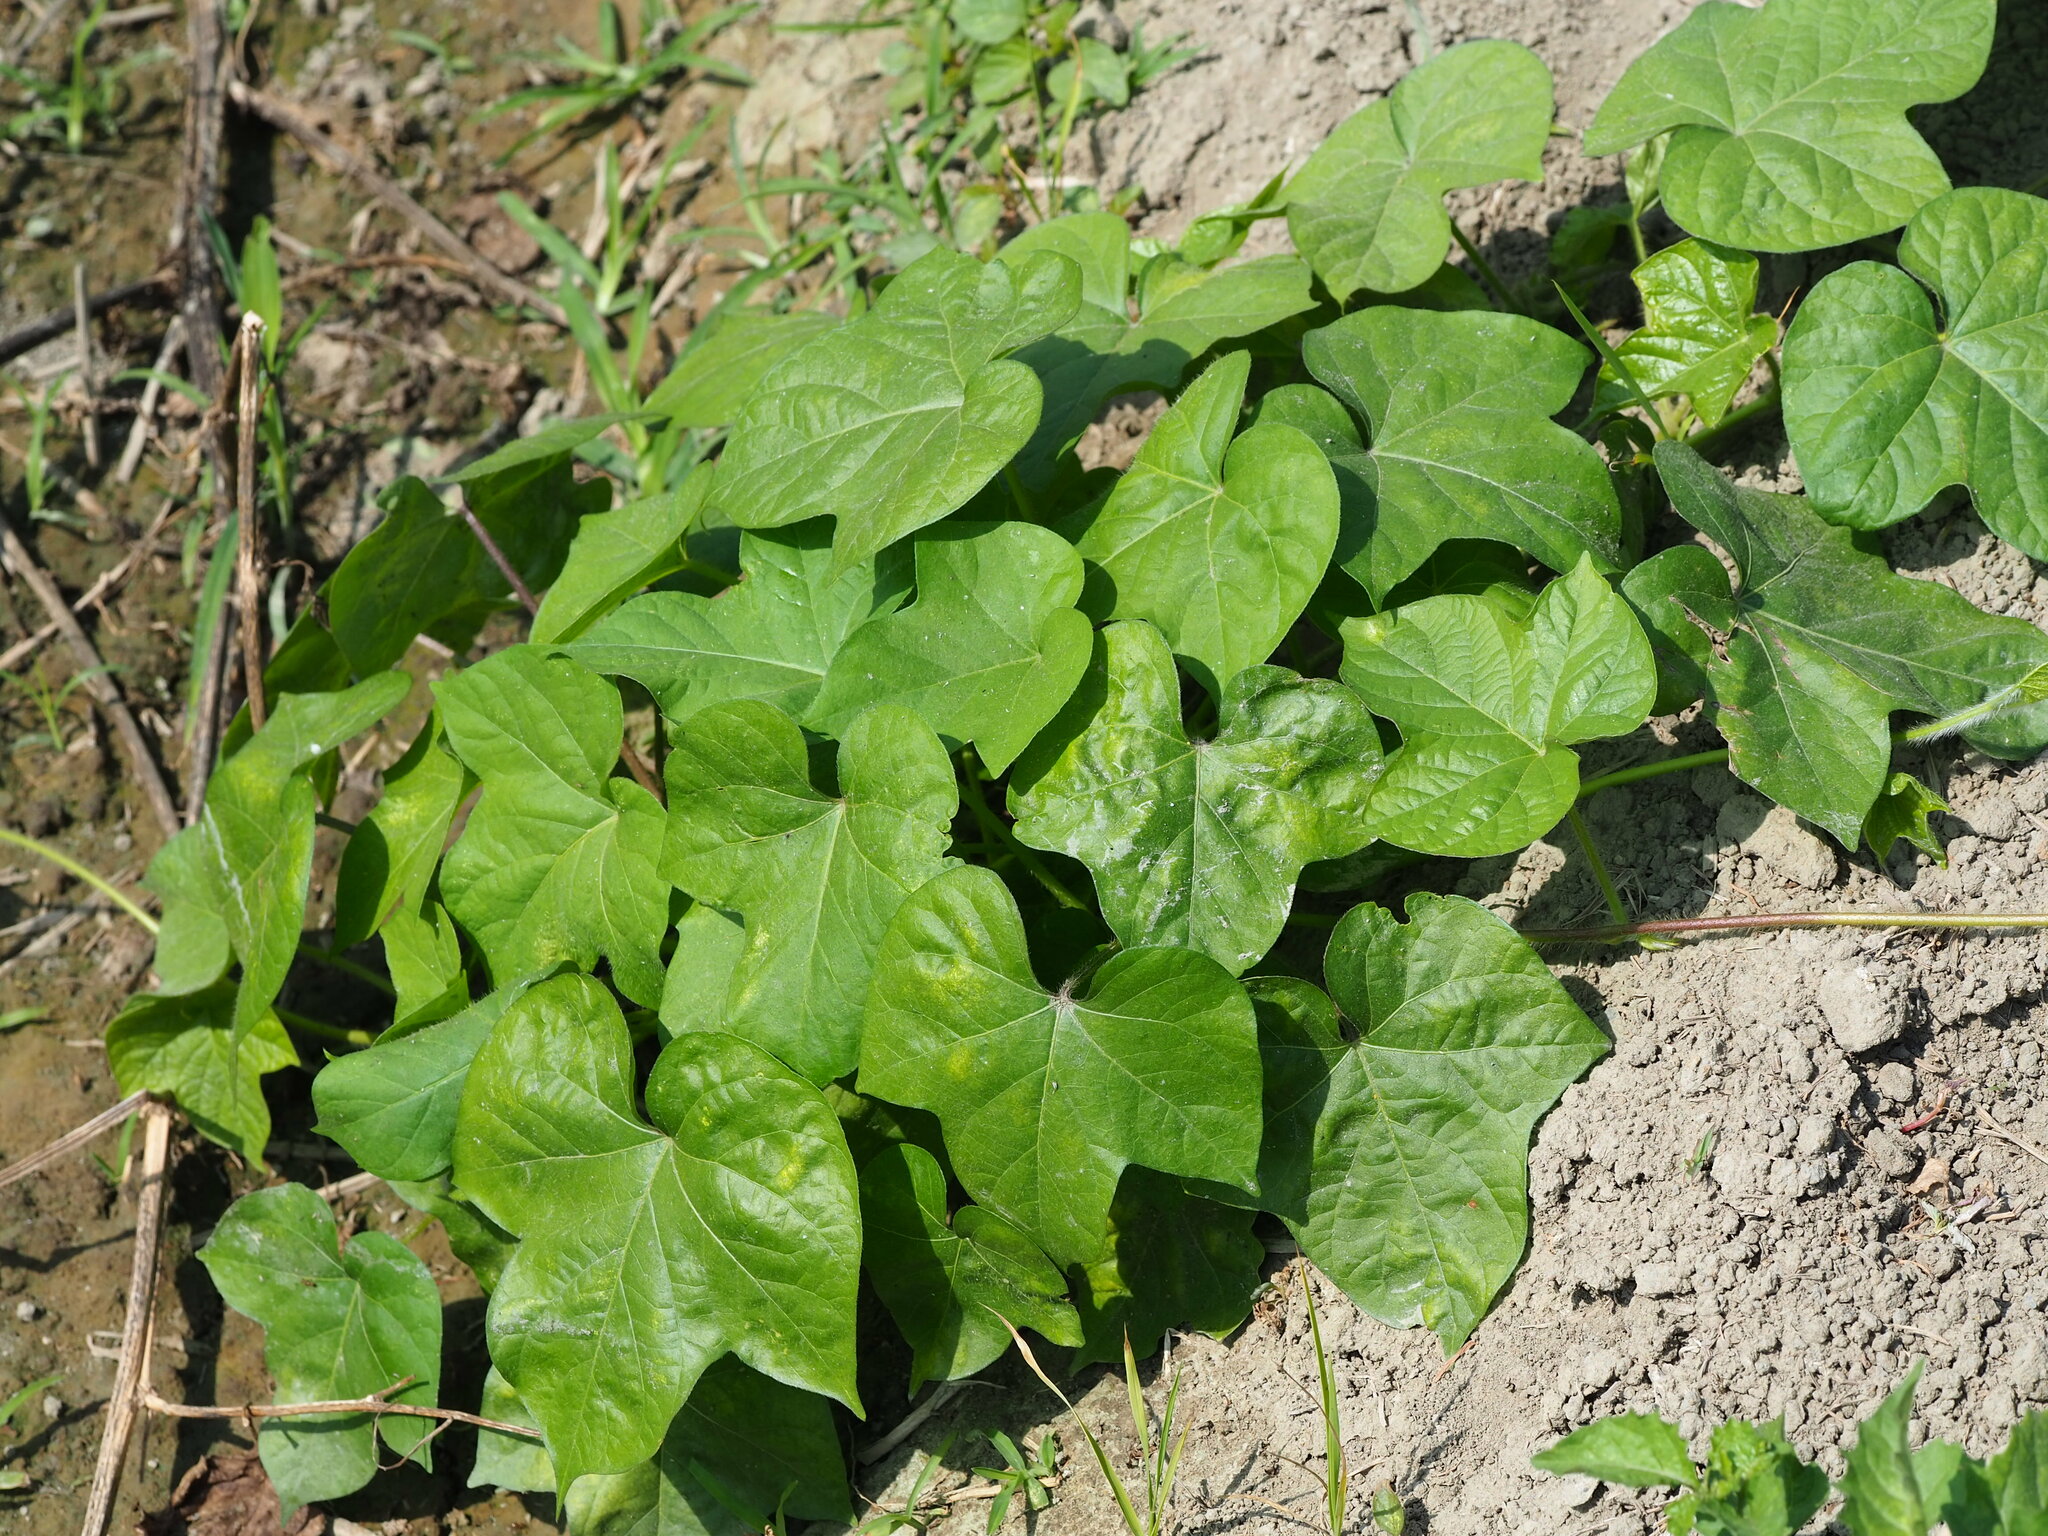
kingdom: Plantae
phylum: Tracheophyta
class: Magnoliopsida
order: Malpighiales
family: Passifloraceae
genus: Passiflora
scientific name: Passiflora vesicaria
